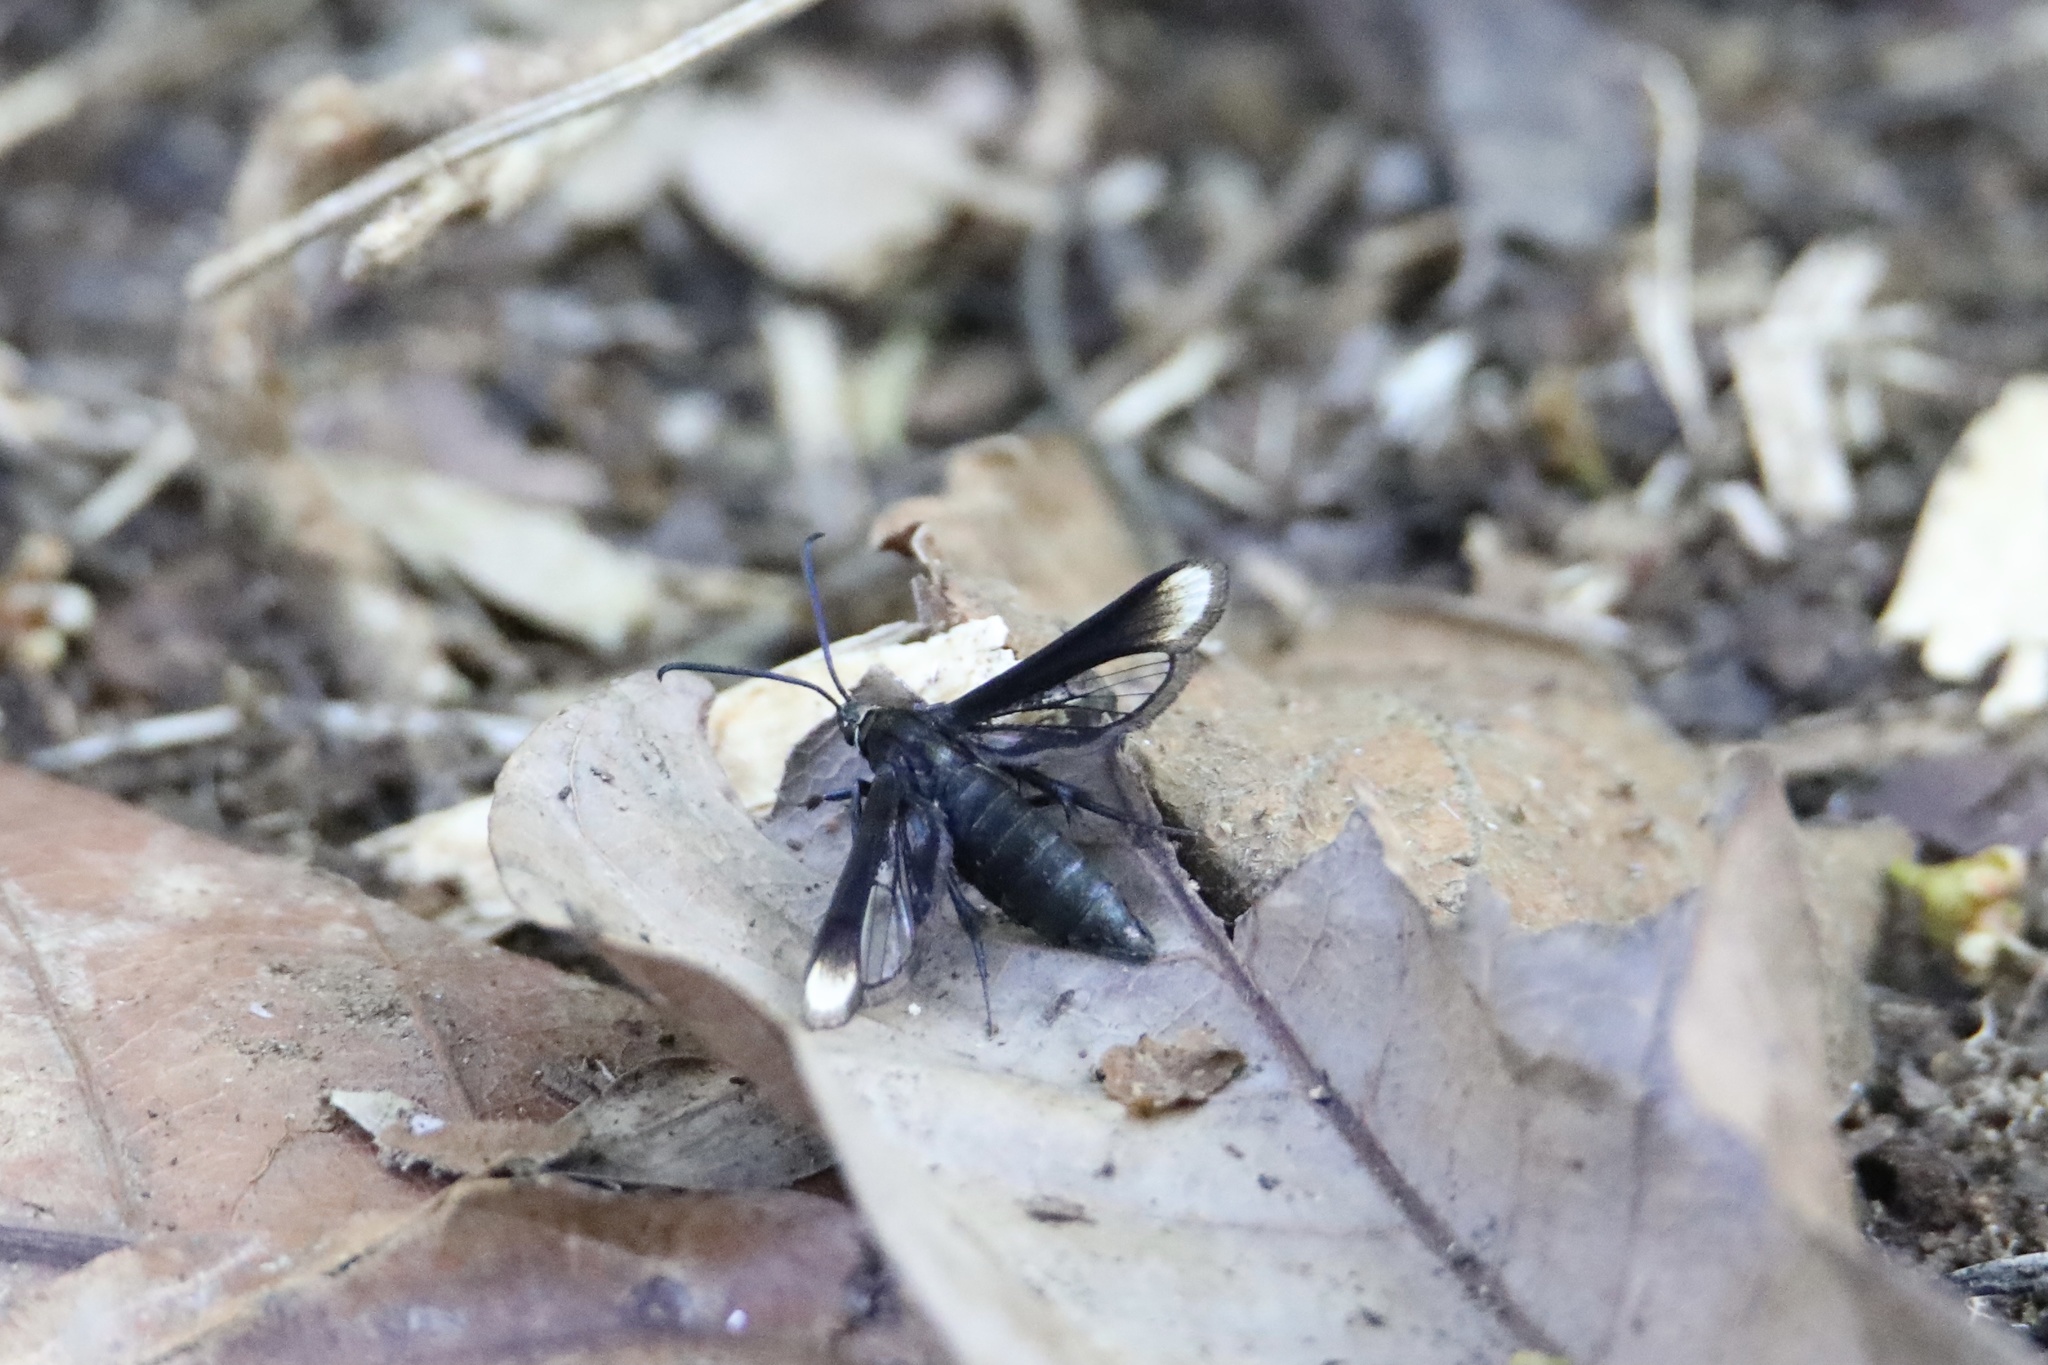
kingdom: Animalia
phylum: Arthropoda
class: Insecta
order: Lepidoptera
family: Sesiidae
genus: Synanthedon
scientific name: Synanthedon apicalis
